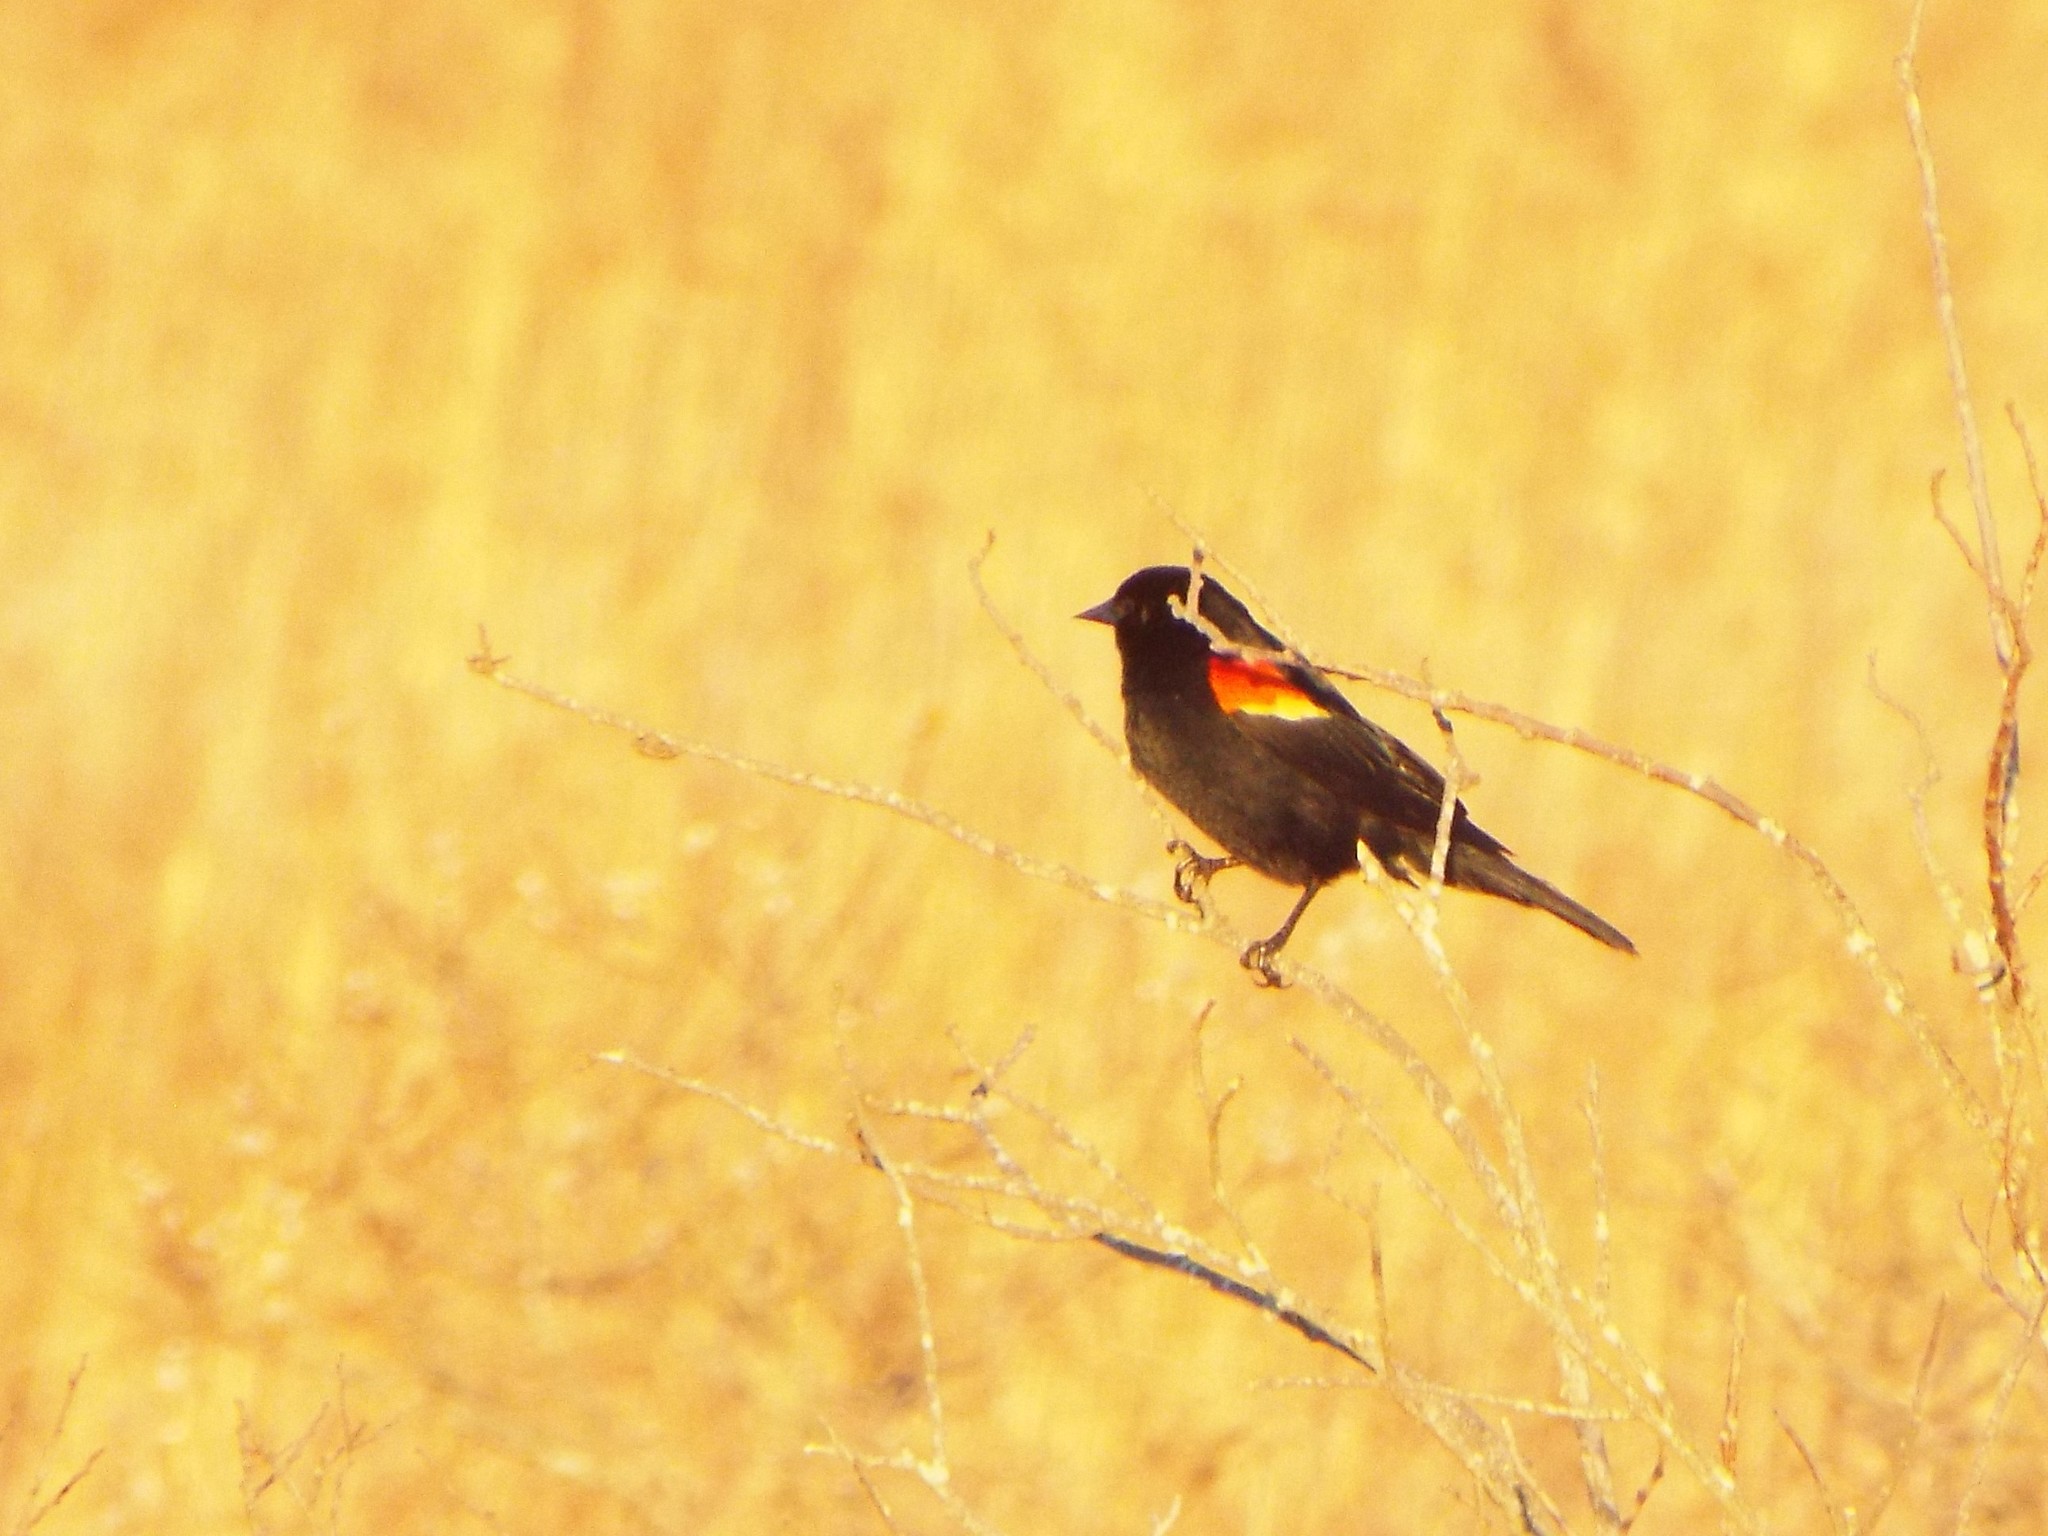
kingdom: Animalia
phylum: Chordata
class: Aves
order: Passeriformes
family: Icteridae
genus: Agelaius
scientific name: Agelaius phoeniceus
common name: Red-winged blackbird
